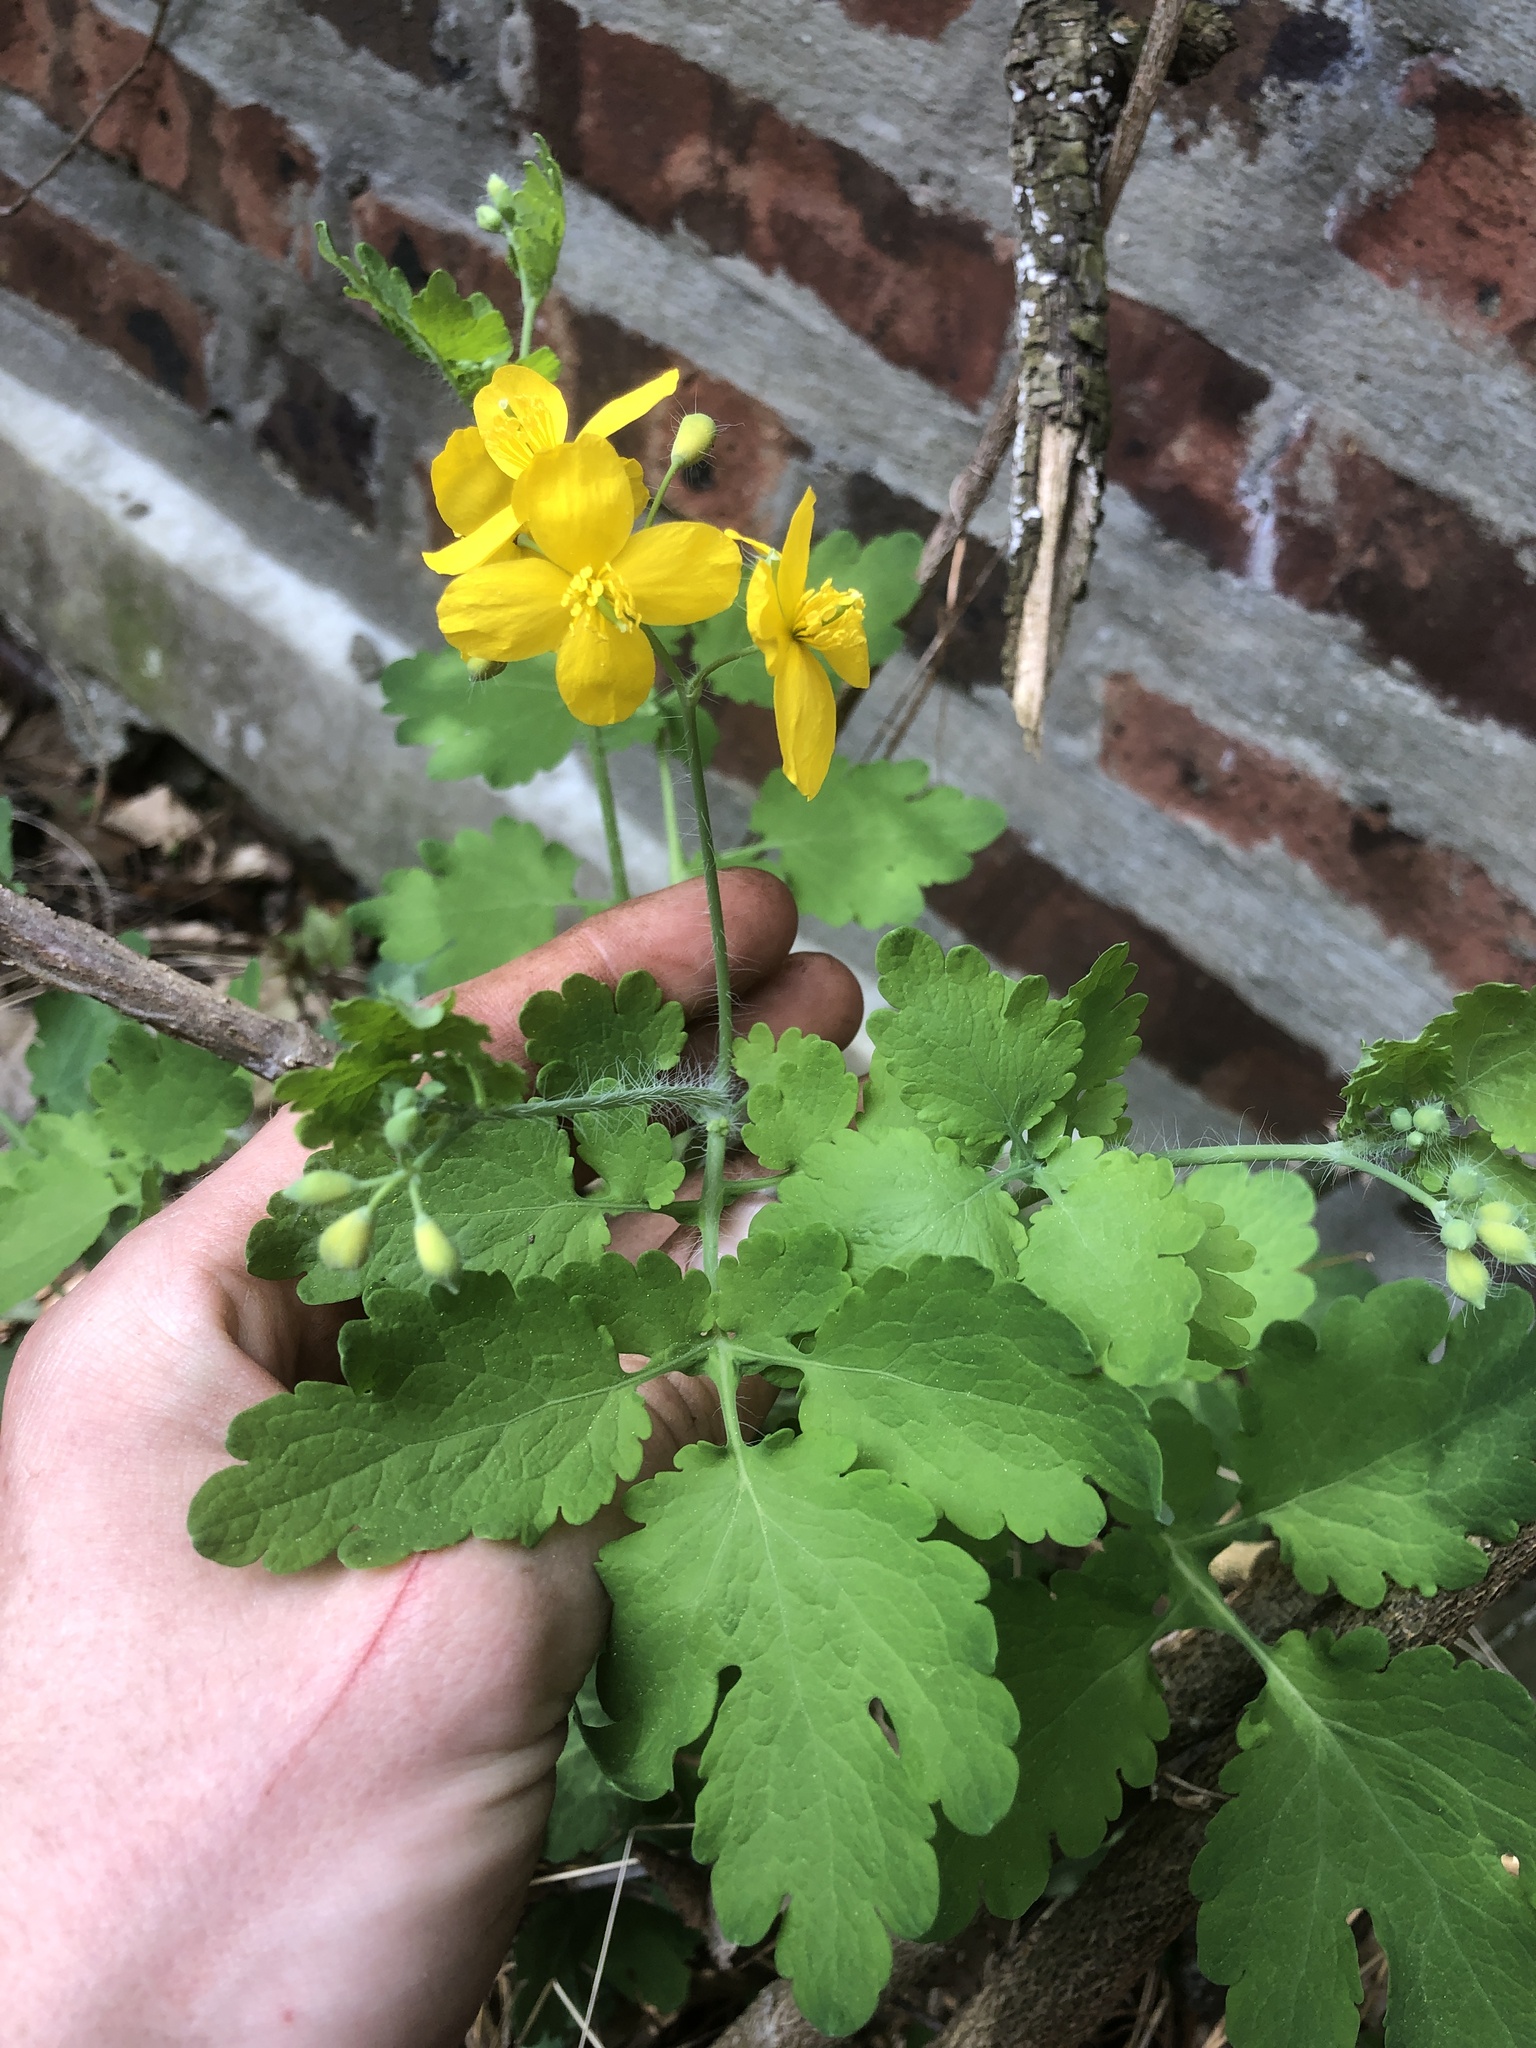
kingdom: Plantae
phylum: Tracheophyta
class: Magnoliopsida
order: Ranunculales
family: Papaveraceae
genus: Chelidonium
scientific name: Chelidonium majus
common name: Greater celandine
